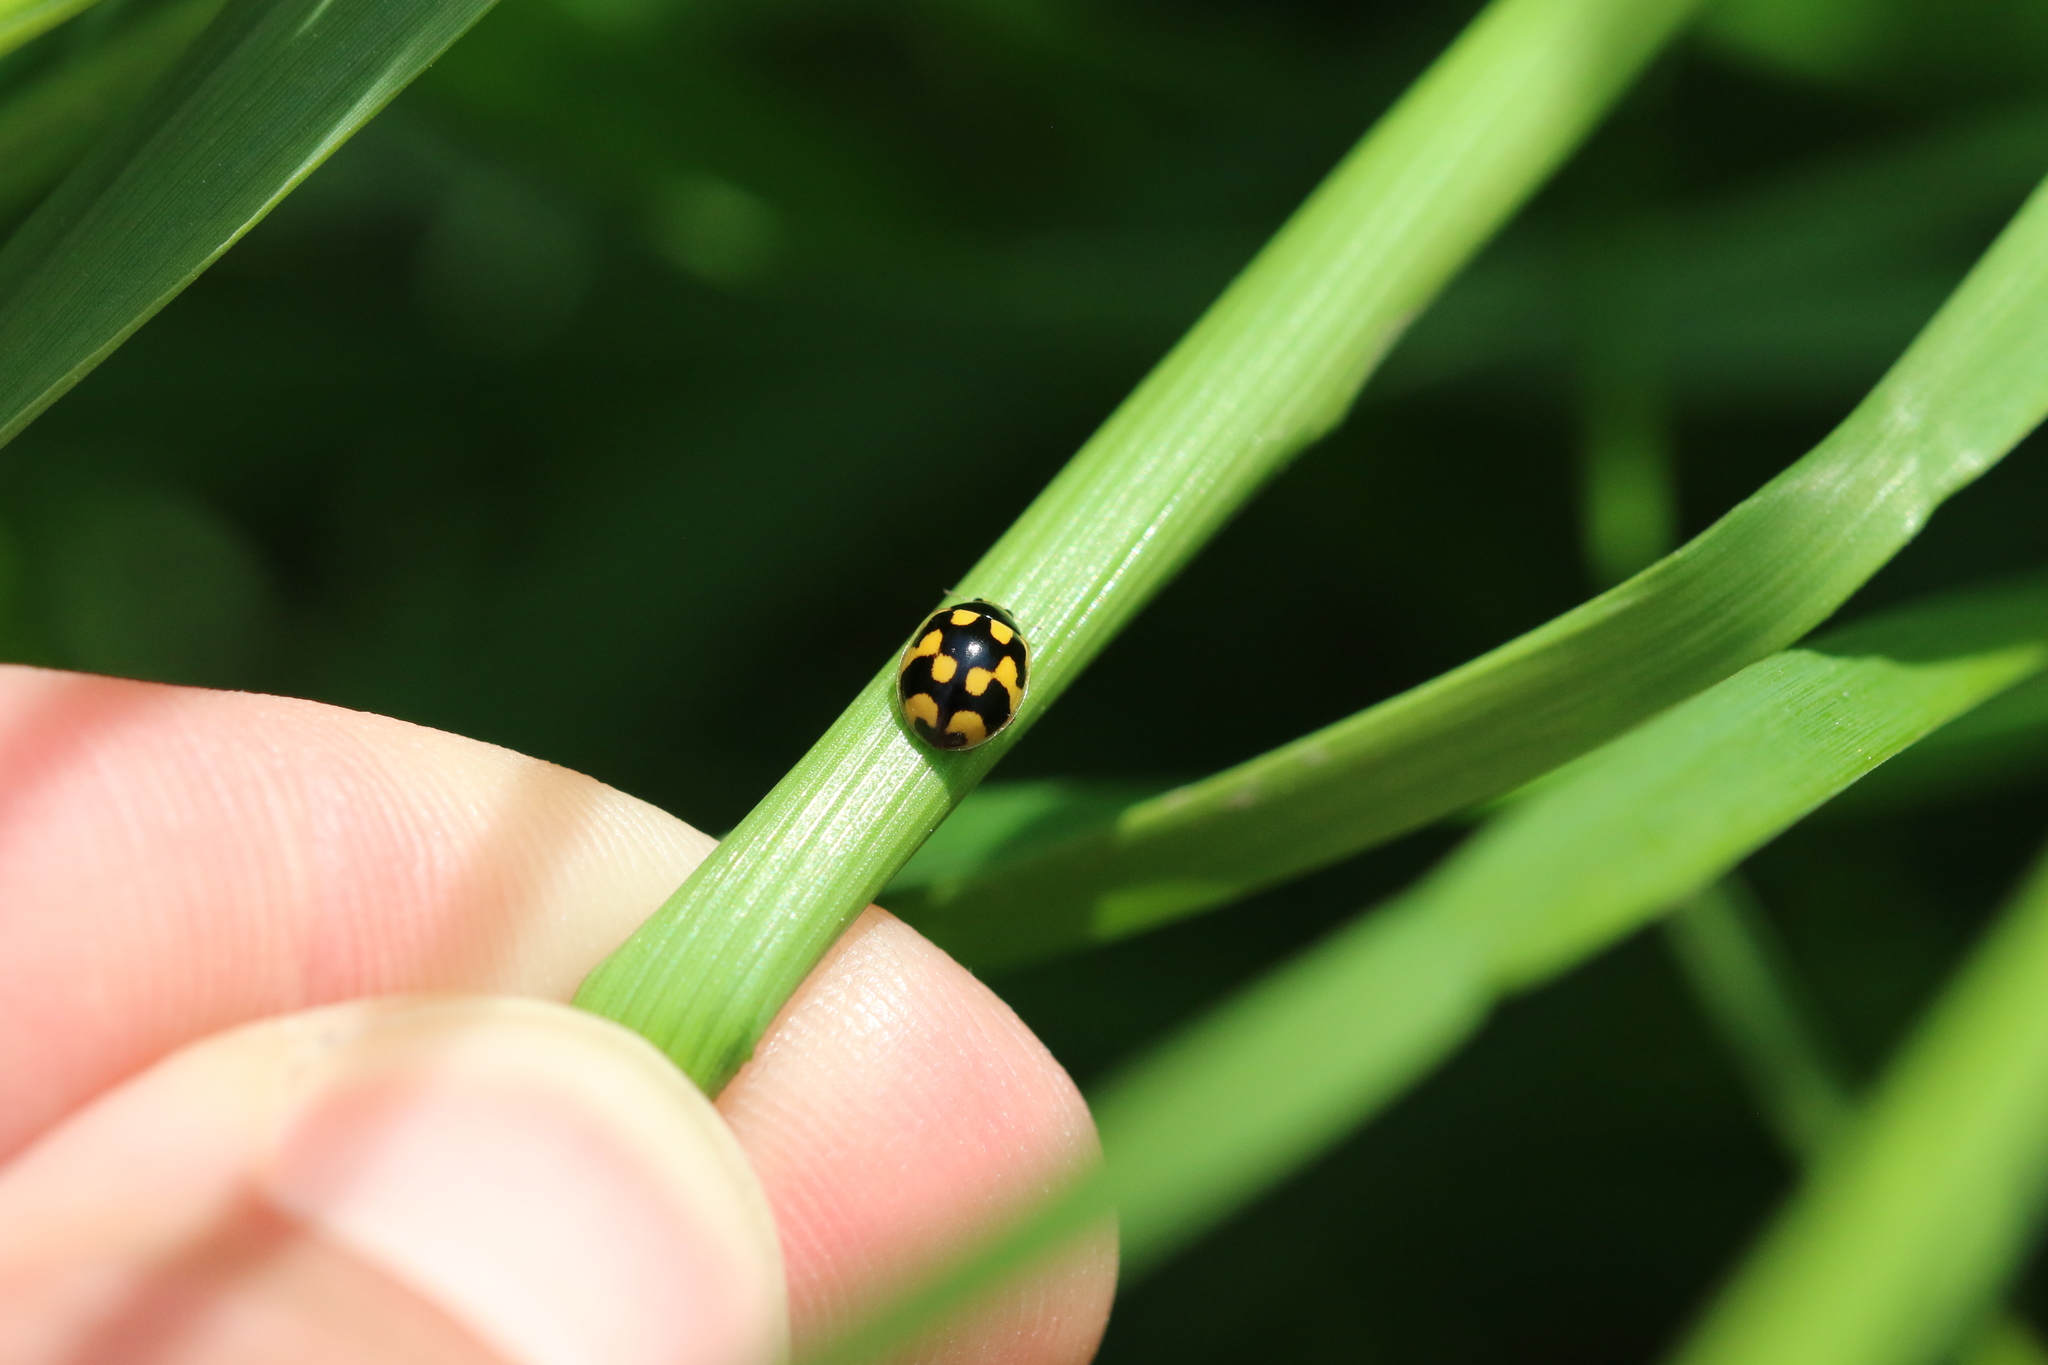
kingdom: Animalia
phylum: Arthropoda
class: Insecta
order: Coleoptera
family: Coccinellidae
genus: Propylaea
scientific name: Propylaea quatuordecimpunctata
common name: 14-spotted ladybird beetle
